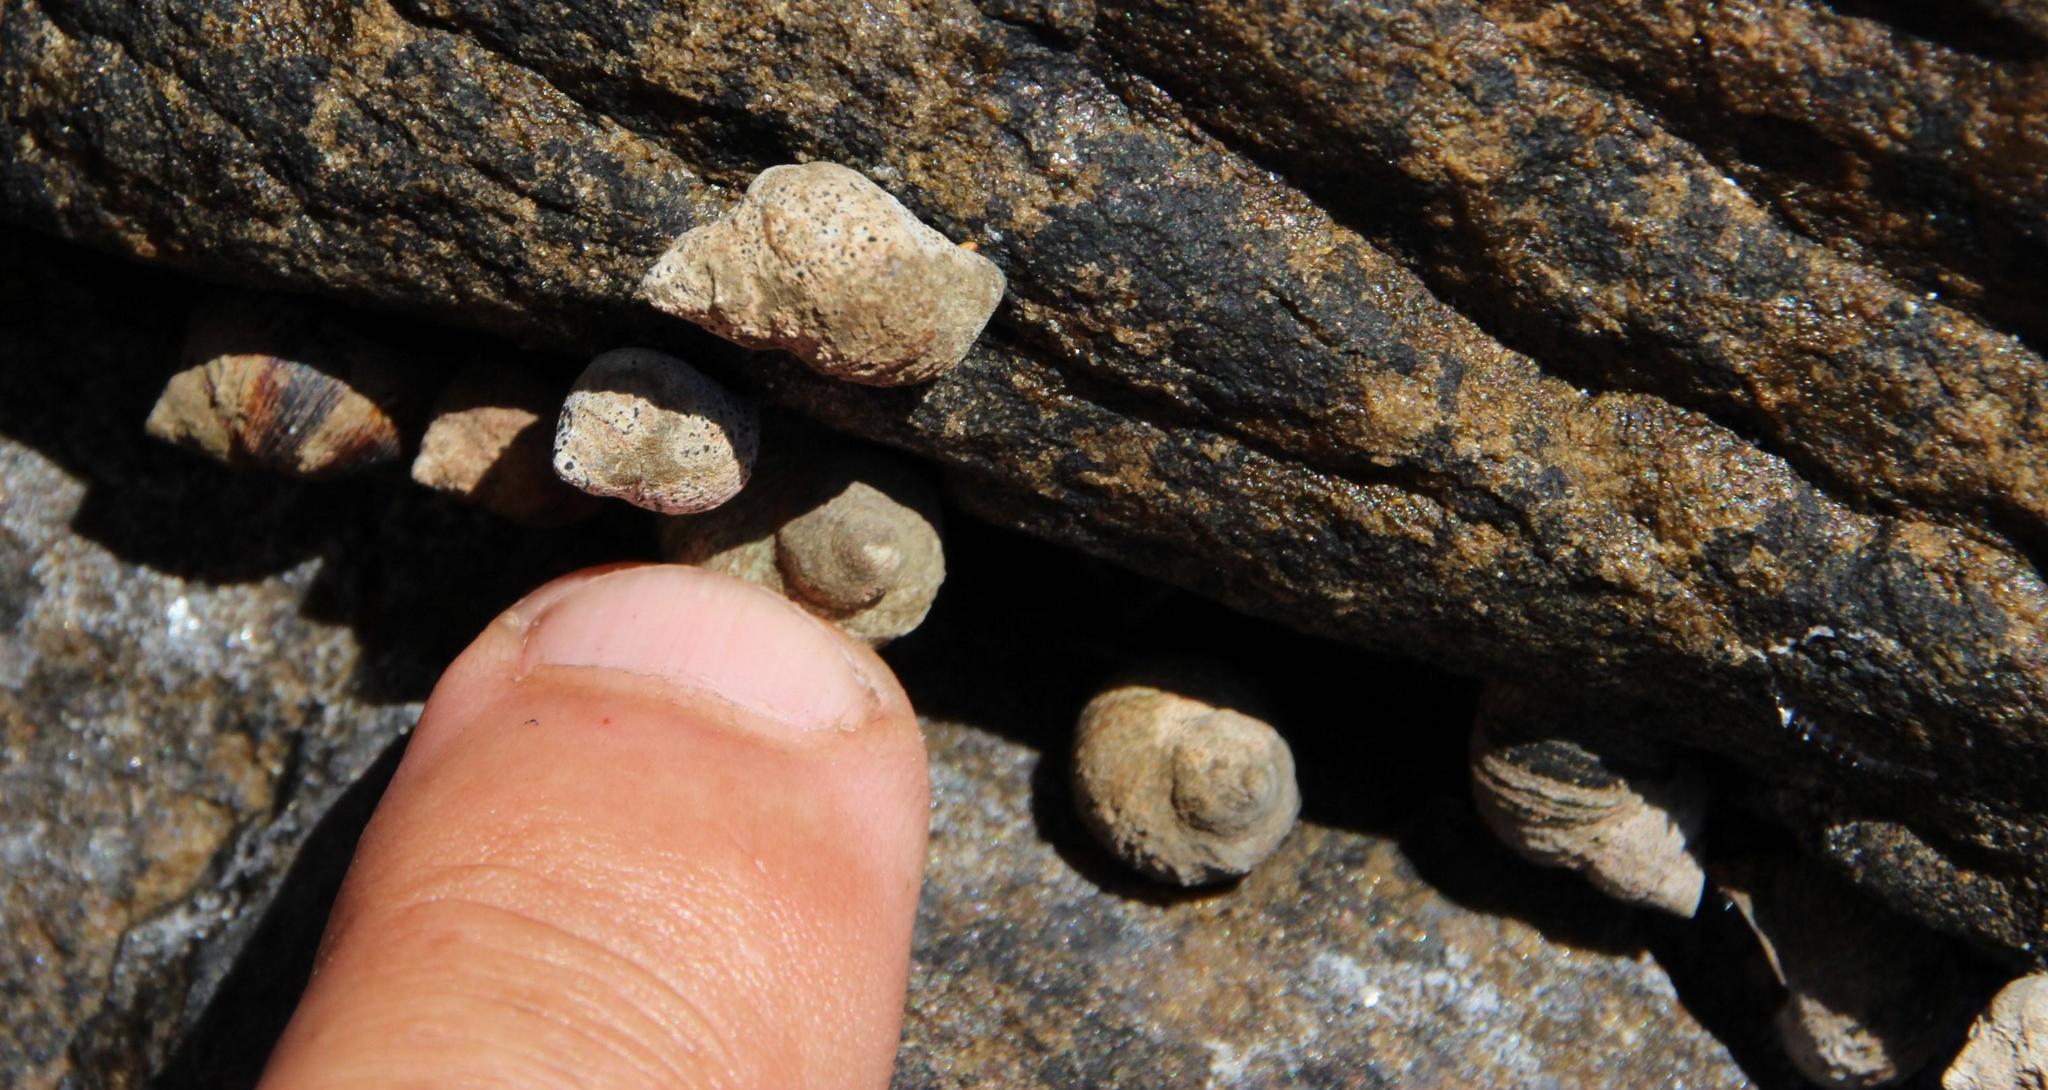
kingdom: Animalia
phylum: Mollusca
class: Gastropoda
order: Littorinimorpha
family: Littorinidae
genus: Afrolittorina
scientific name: Afrolittorina knysnaensis
